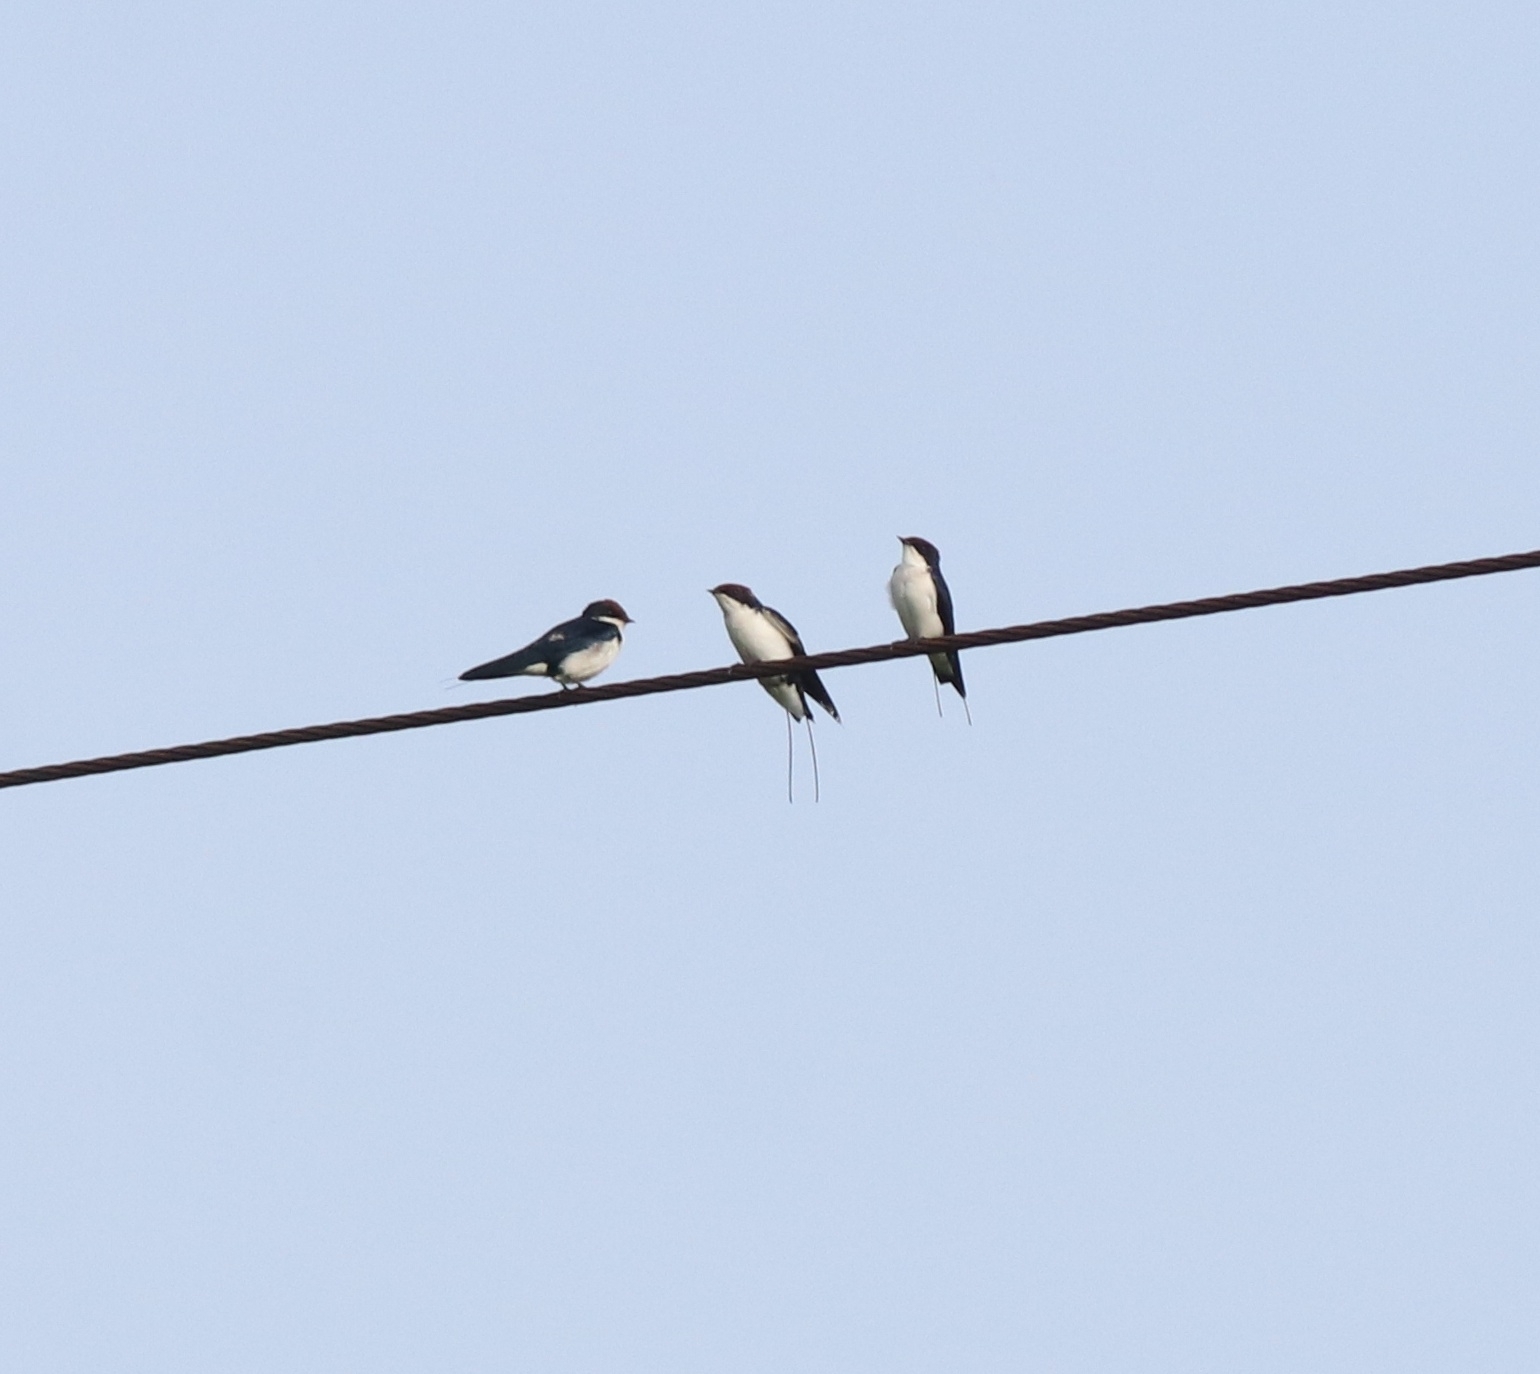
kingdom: Animalia
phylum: Chordata
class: Aves
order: Passeriformes
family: Hirundinidae
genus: Hirundo
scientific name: Hirundo smithii
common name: Wire-tailed swallow
